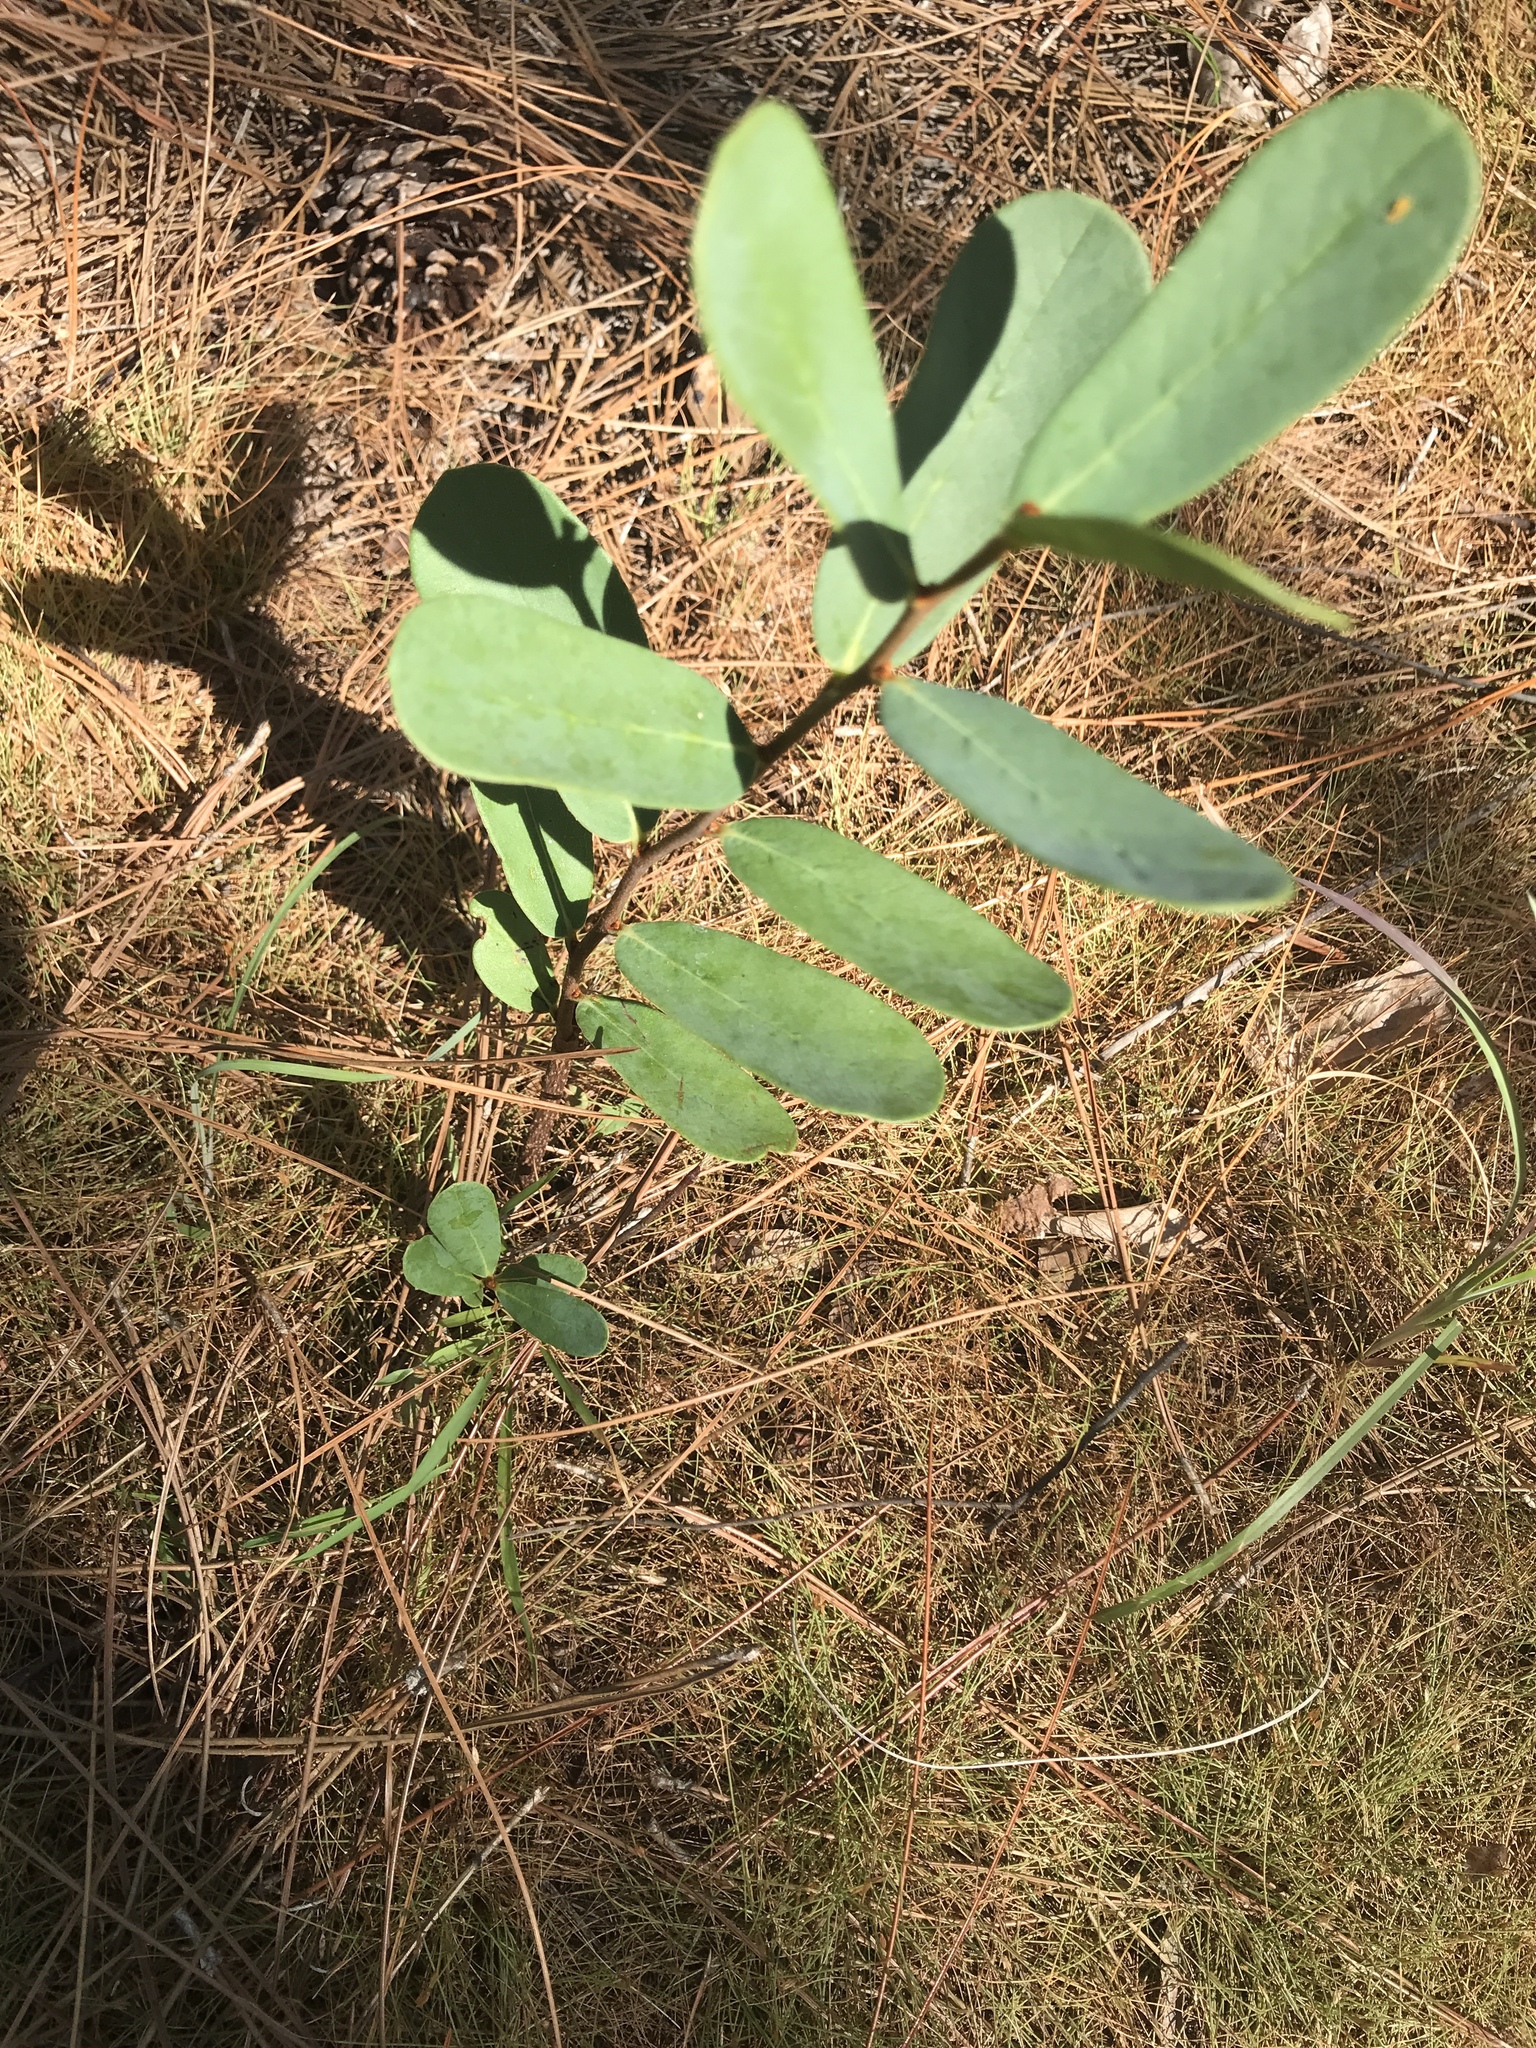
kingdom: Plantae
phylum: Tracheophyta
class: Magnoliopsida
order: Magnoliales
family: Annonaceae
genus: Asimina
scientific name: Asimina reticulata
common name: Flag pawpaw
